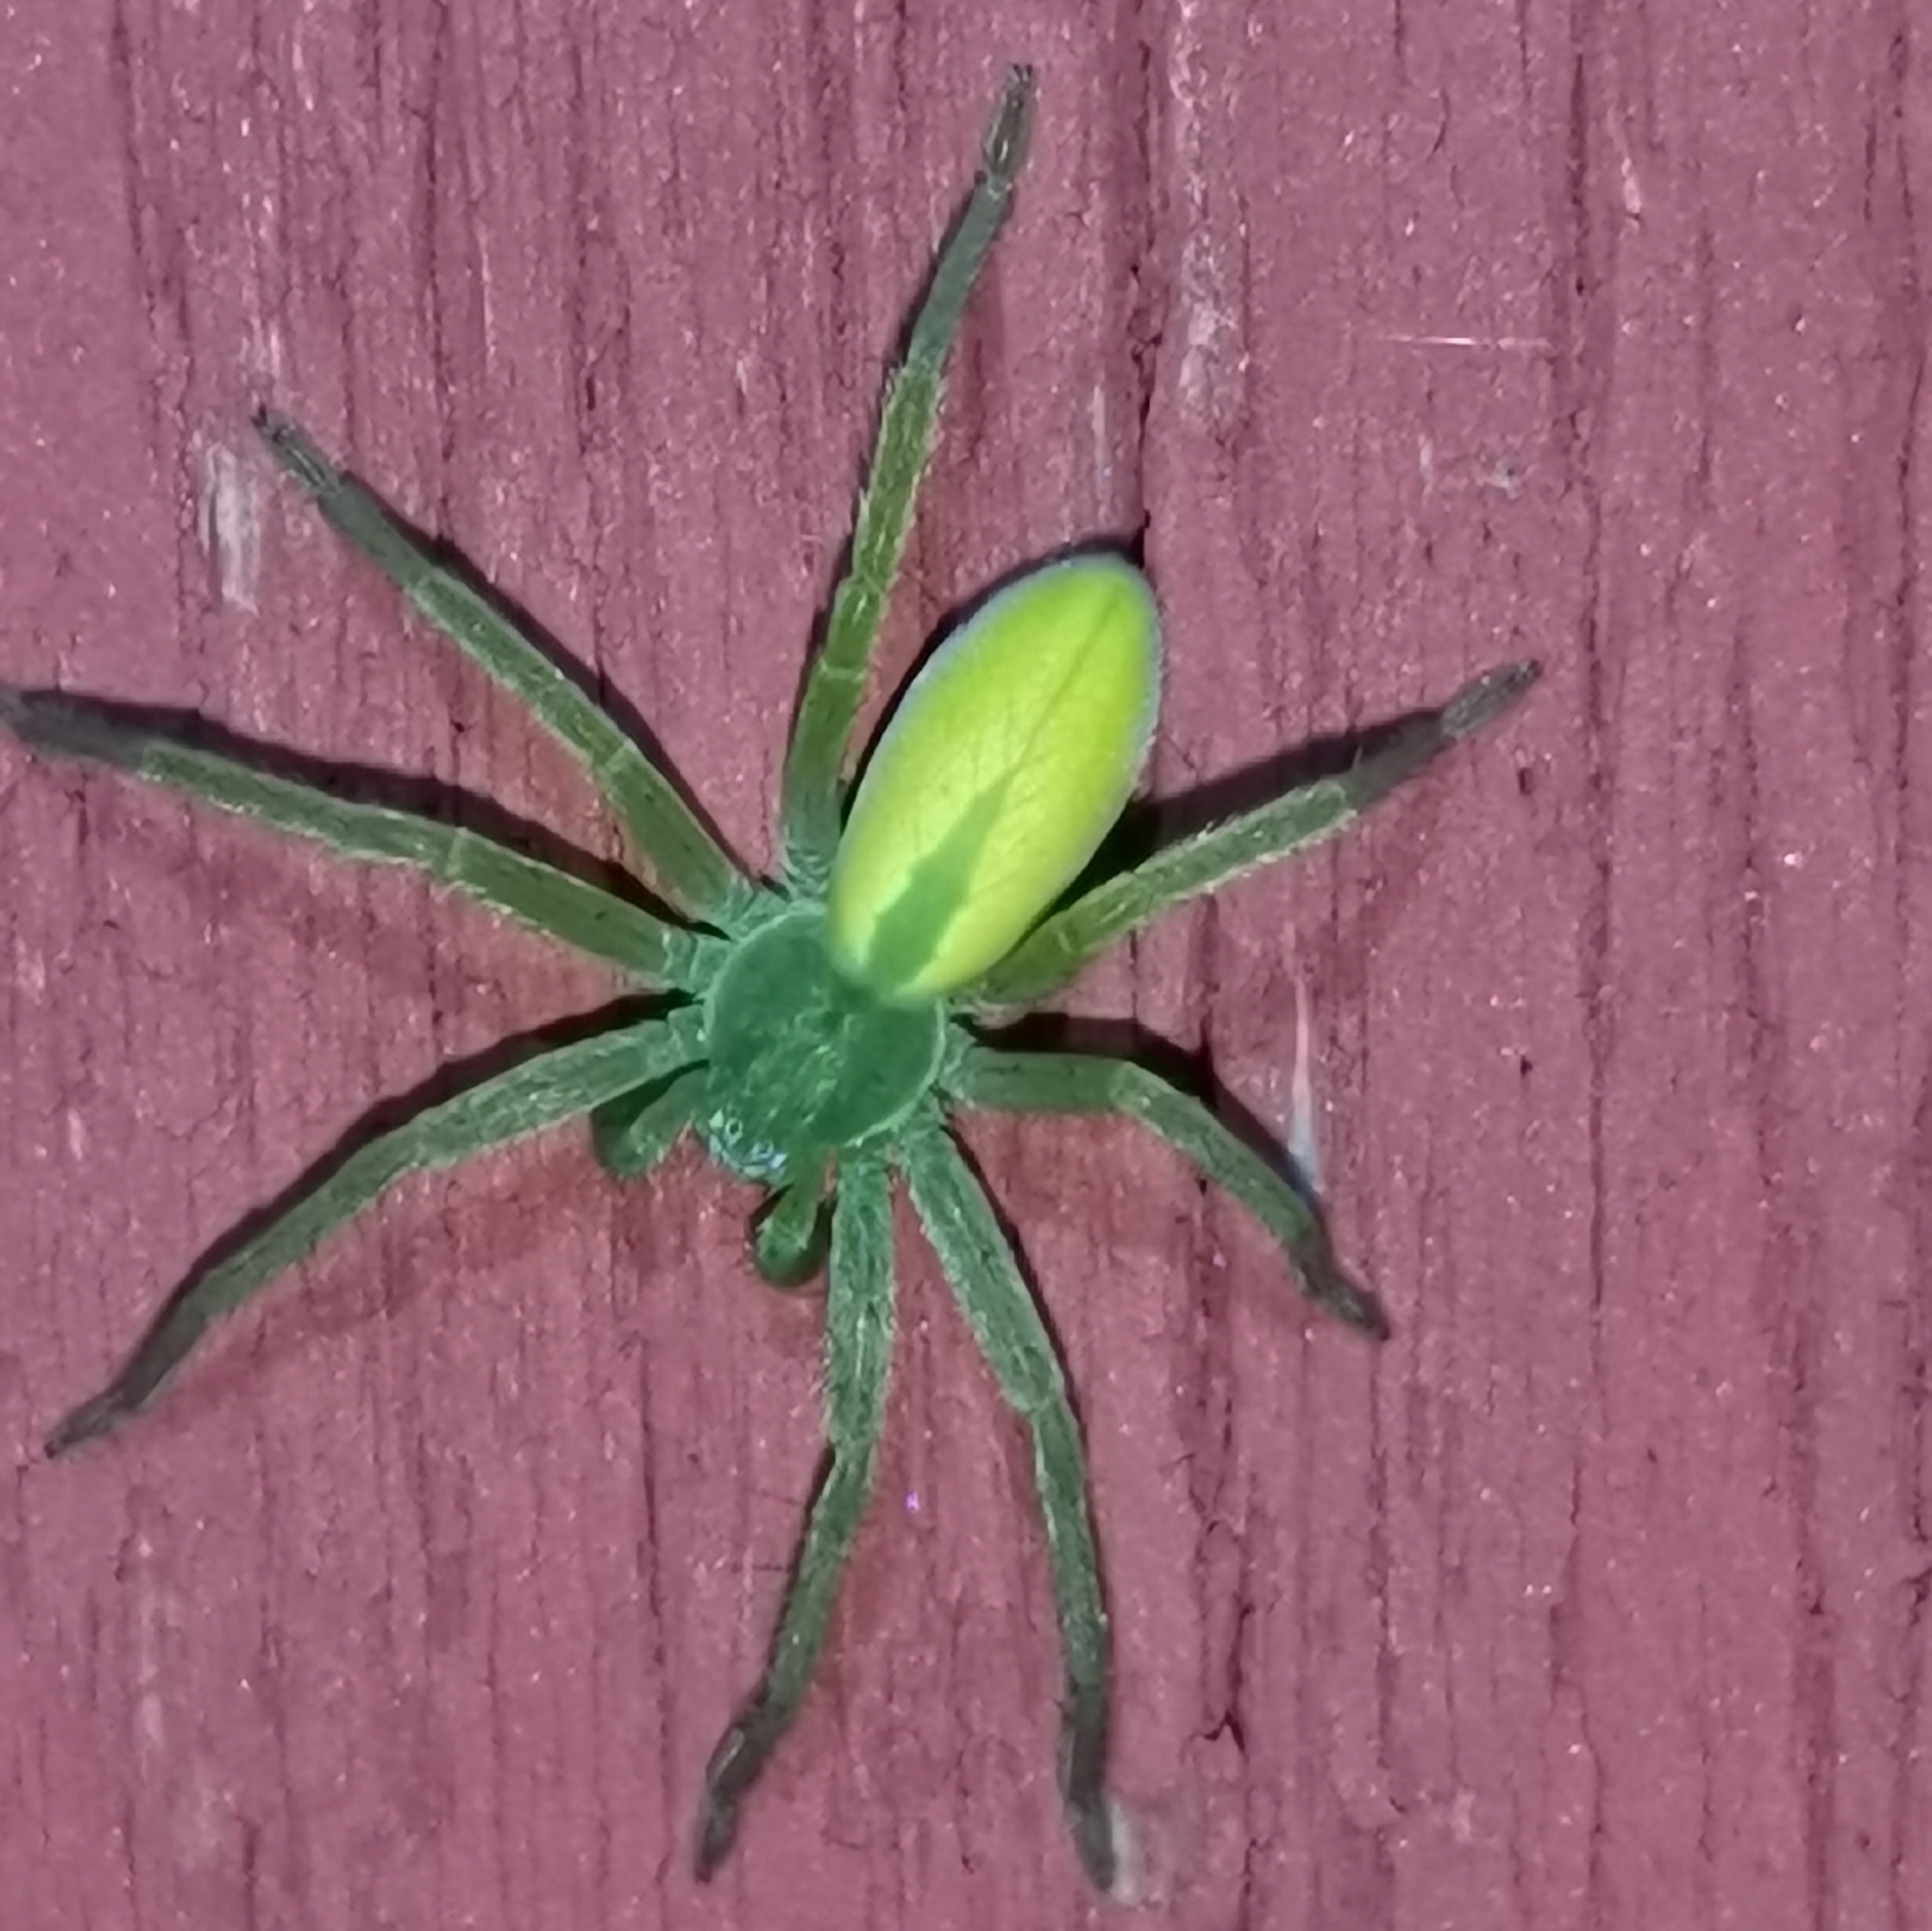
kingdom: Animalia
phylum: Arthropoda
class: Arachnida
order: Araneae
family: Sparassidae
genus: Micrommata
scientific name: Micrommata virescens
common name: Green spider
